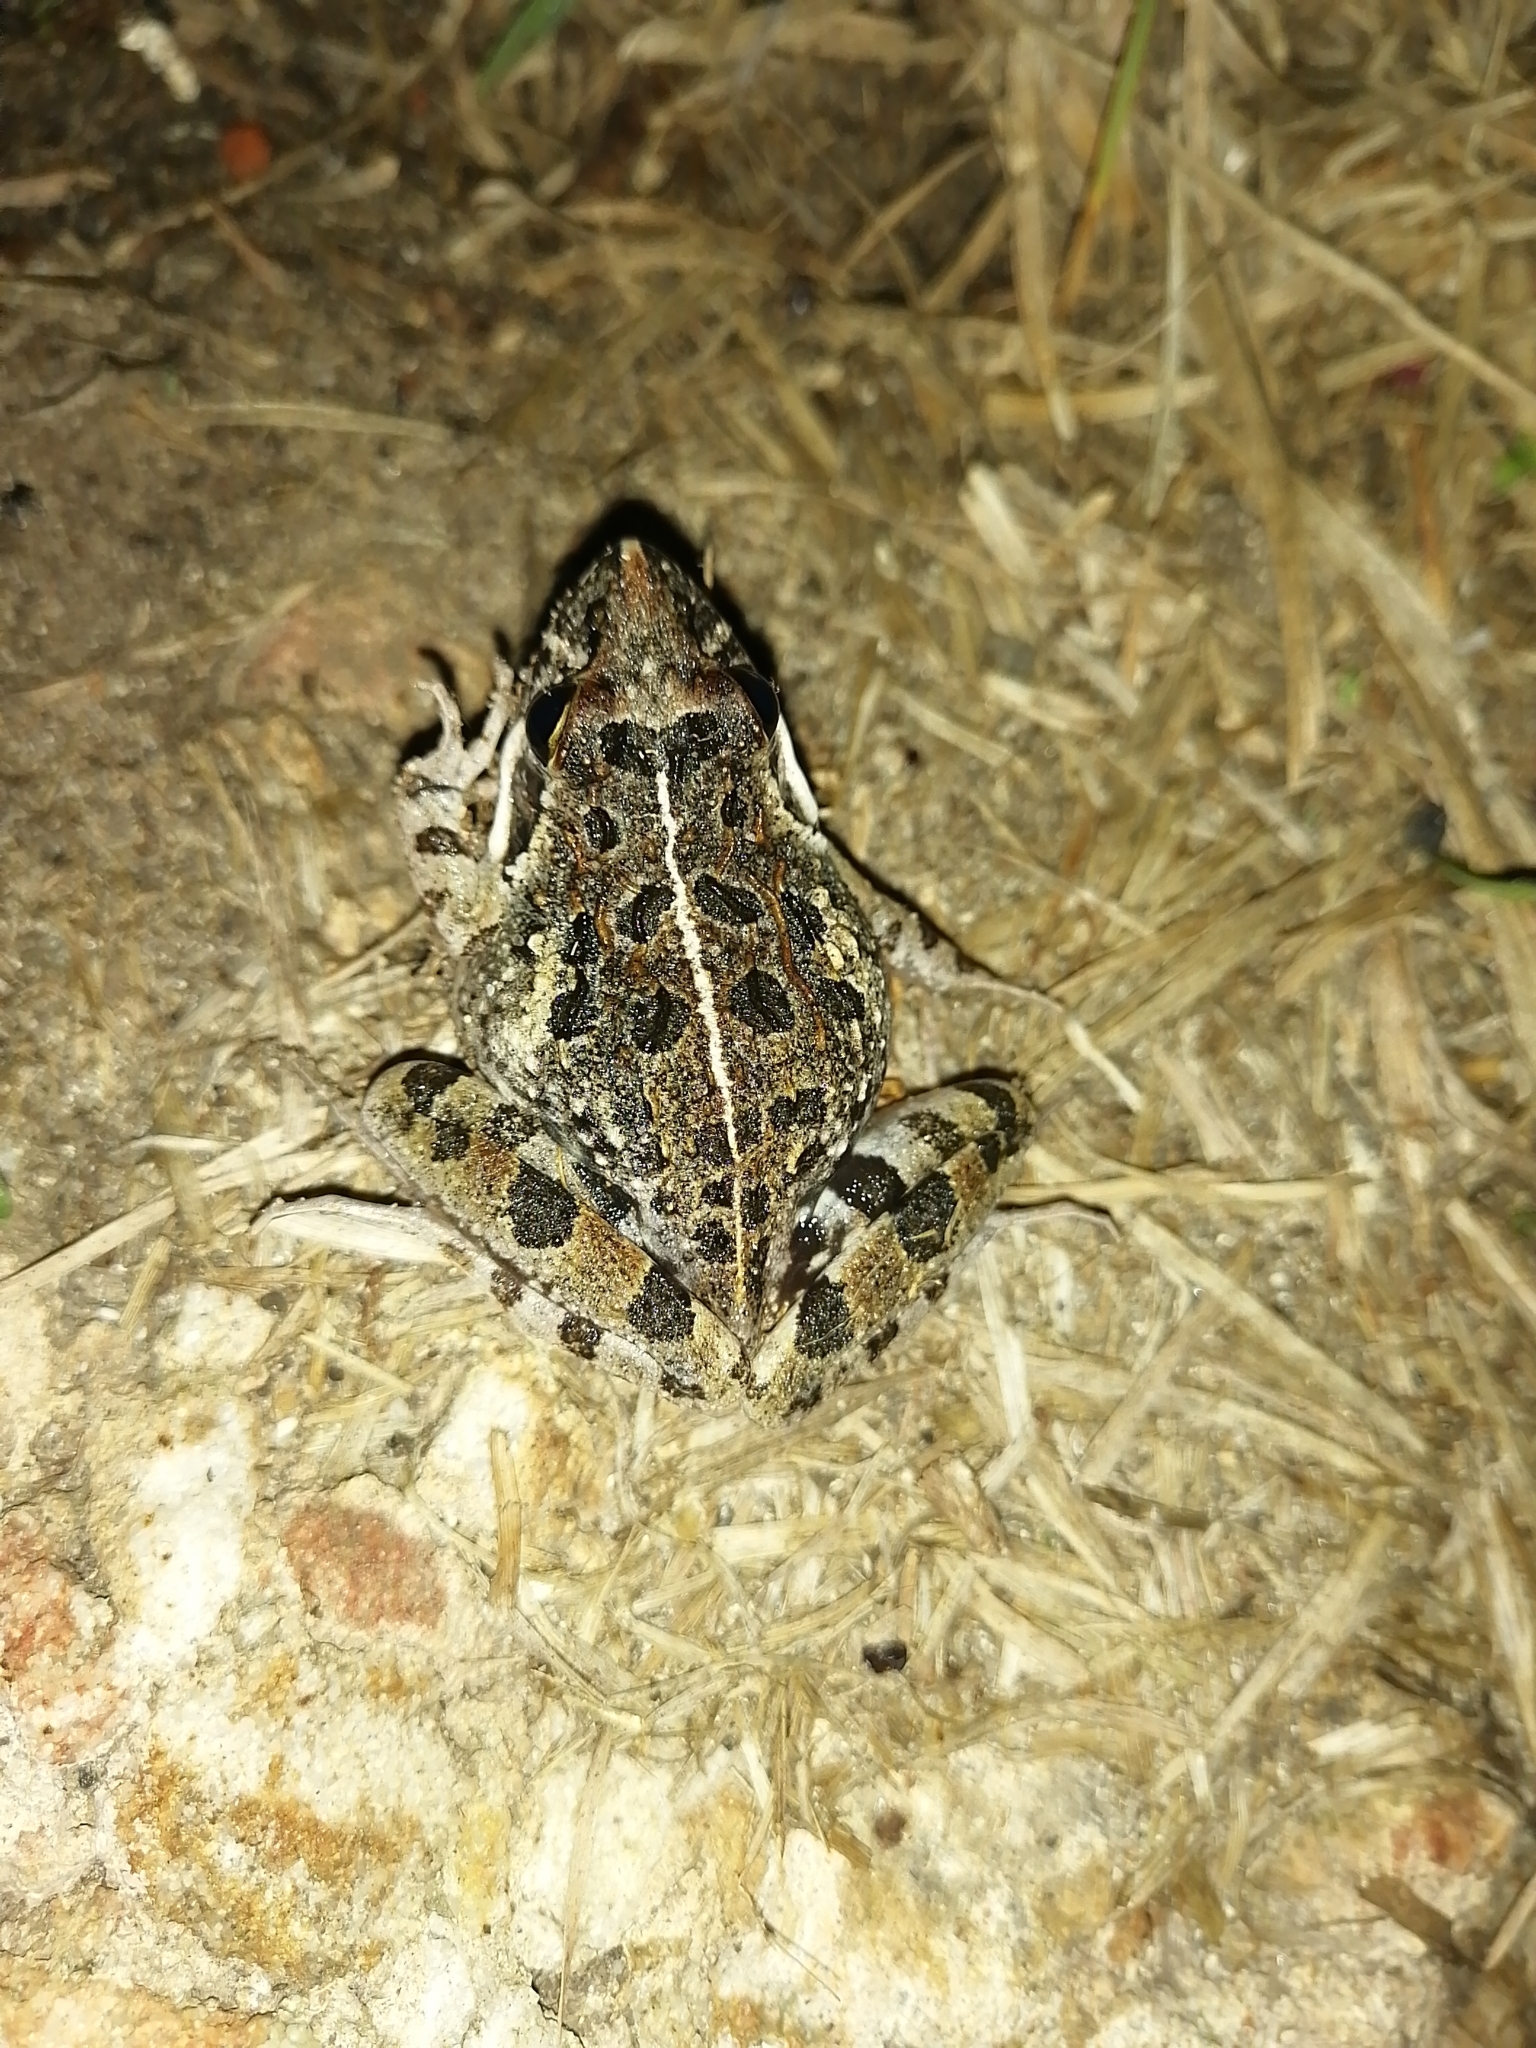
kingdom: Animalia
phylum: Chordata
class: Amphibia
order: Anura
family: Pyxicephalidae
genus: Strongylopus
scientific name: Strongylopus grayii
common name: Gray's stream frog
